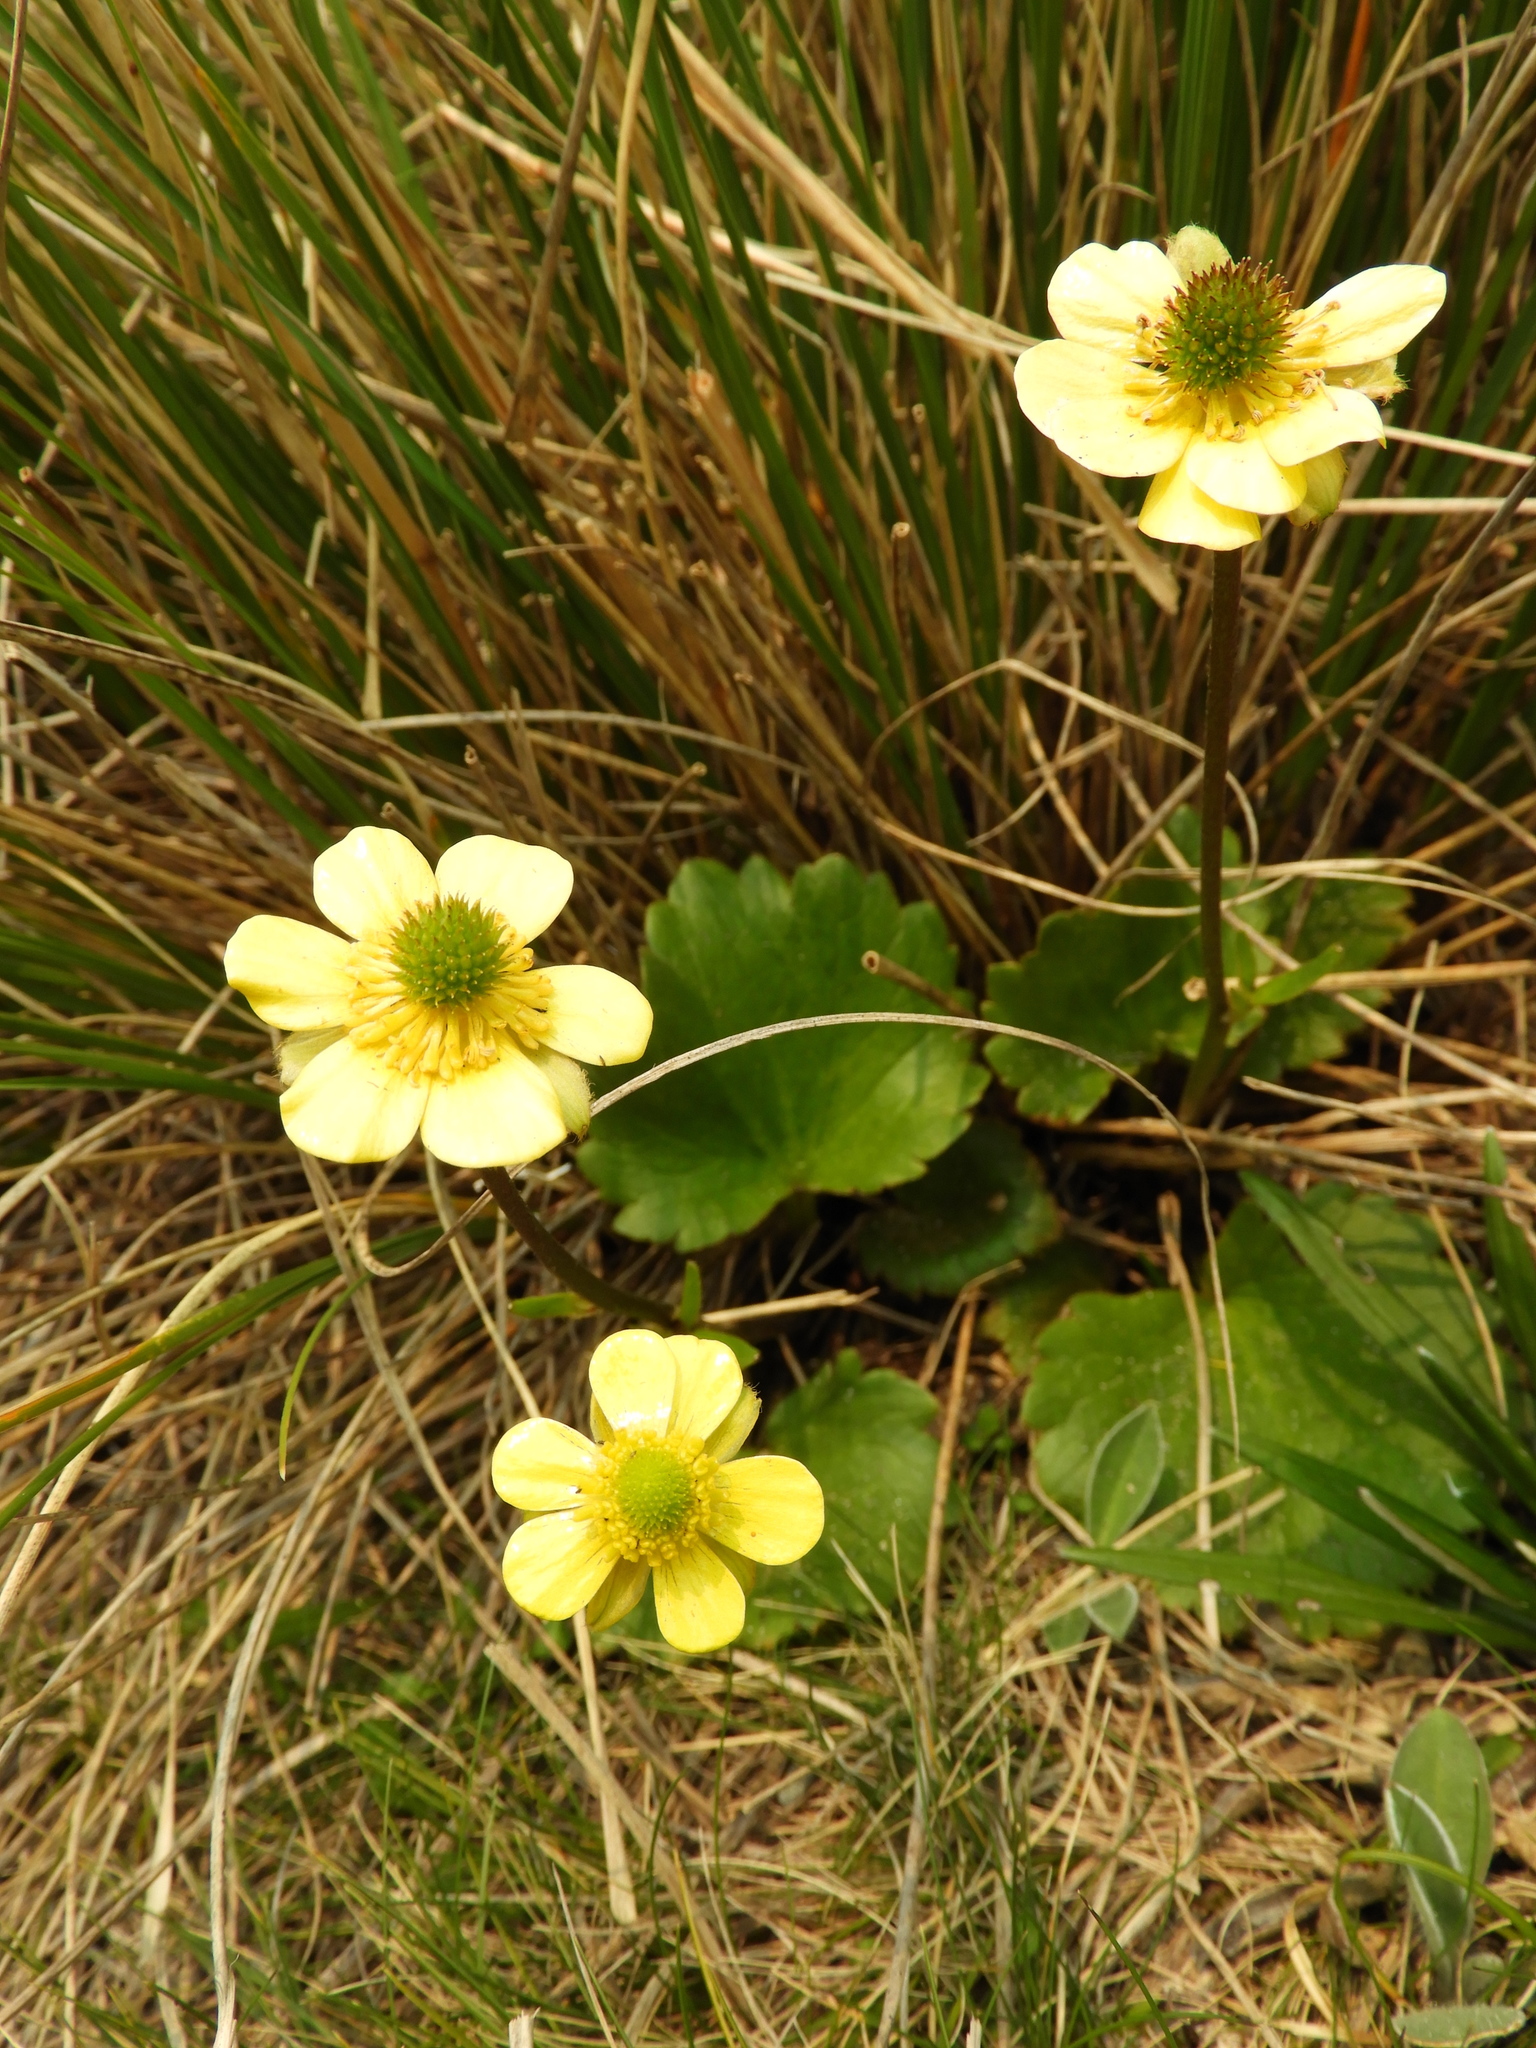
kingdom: Plantae
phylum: Tracheophyta
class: Magnoliopsida
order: Ranunculales
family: Ranunculaceae
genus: Ranunculus
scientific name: Ranunculus insignis
